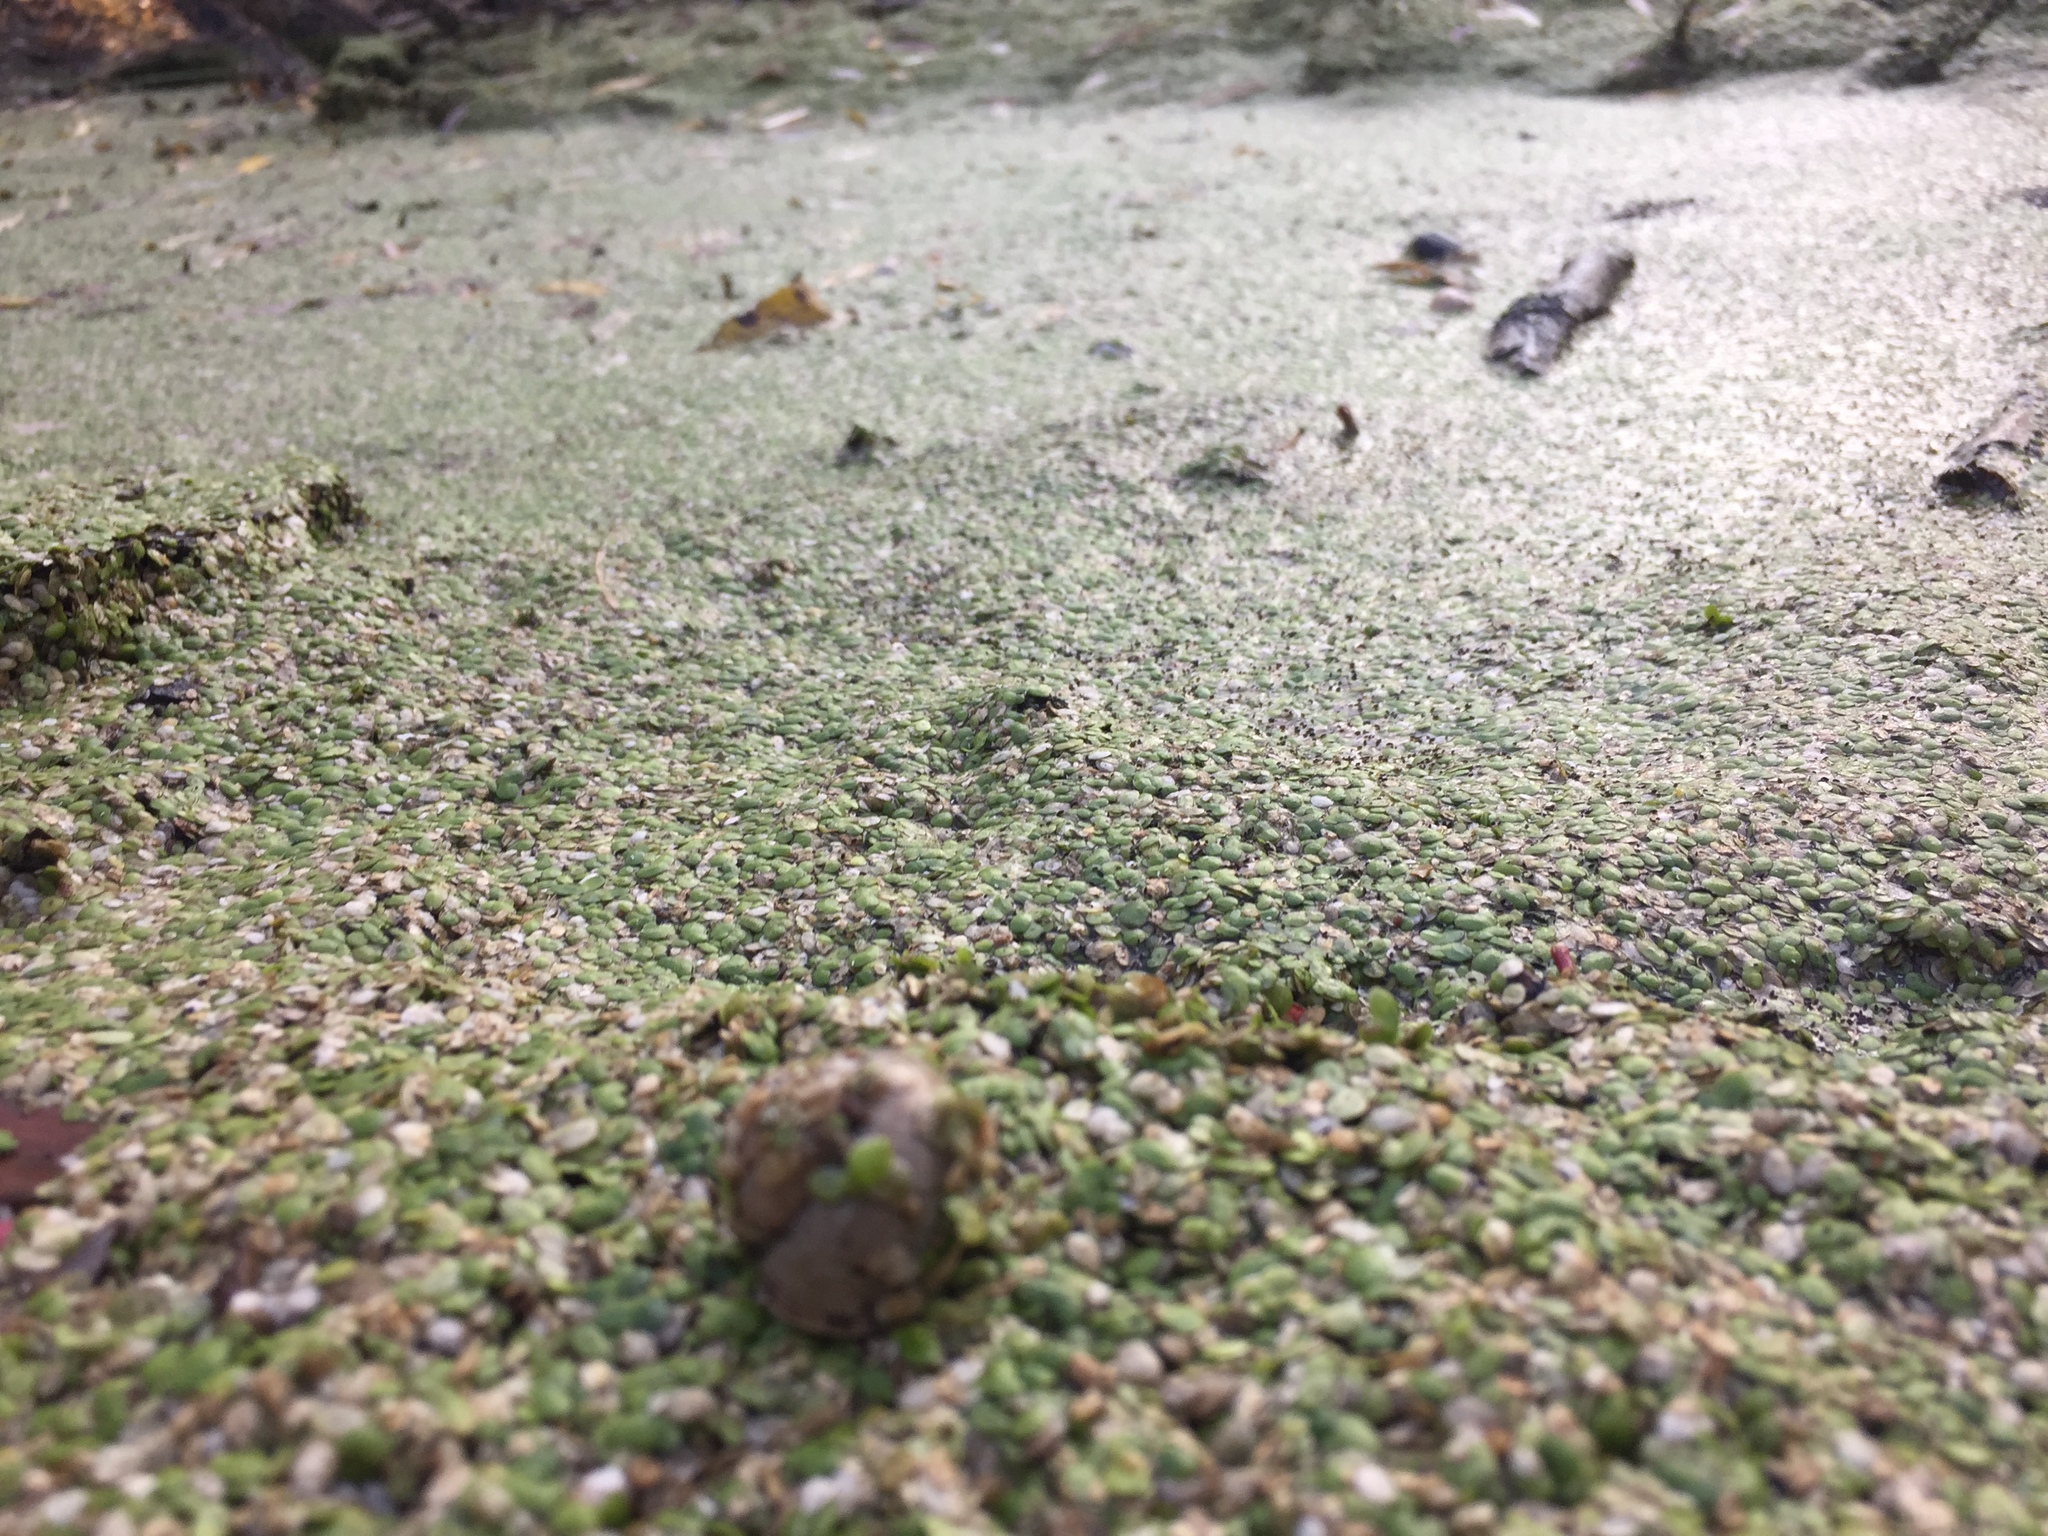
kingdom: Plantae
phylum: Tracheophyta
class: Liliopsida
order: Alismatales
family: Araceae
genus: Lemna
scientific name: Lemna turionifera
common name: Perennial duckweed
